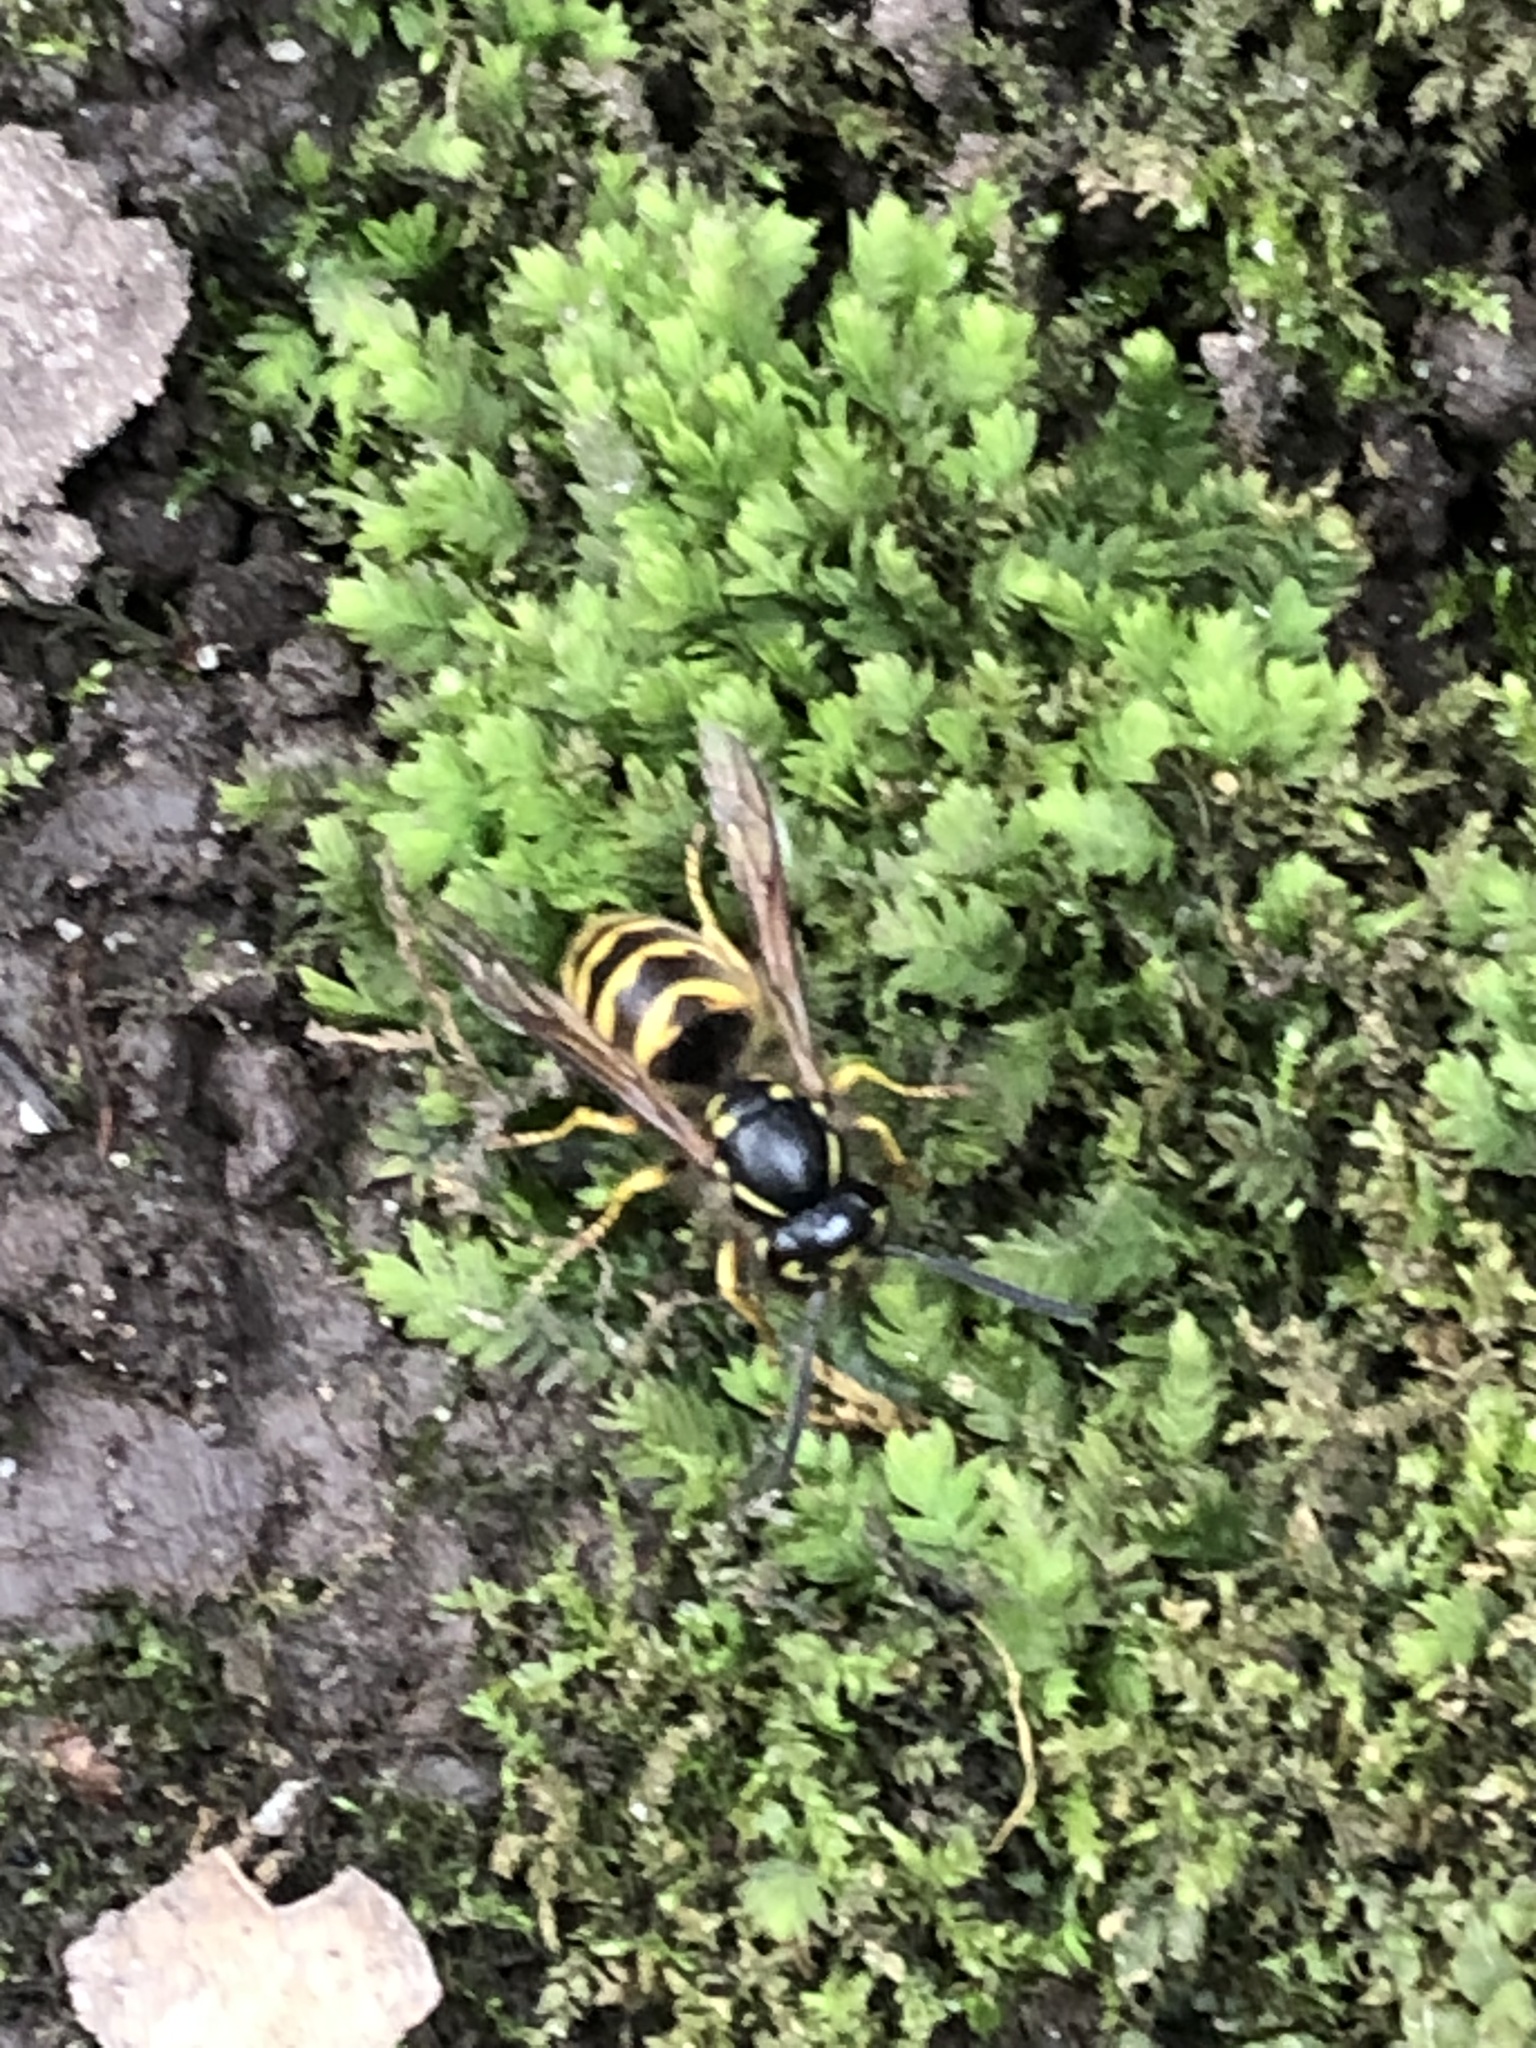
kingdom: Animalia
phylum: Arthropoda
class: Insecta
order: Hymenoptera
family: Vespidae
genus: Vespula
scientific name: Vespula alascensis
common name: Alaska yellowjacket
